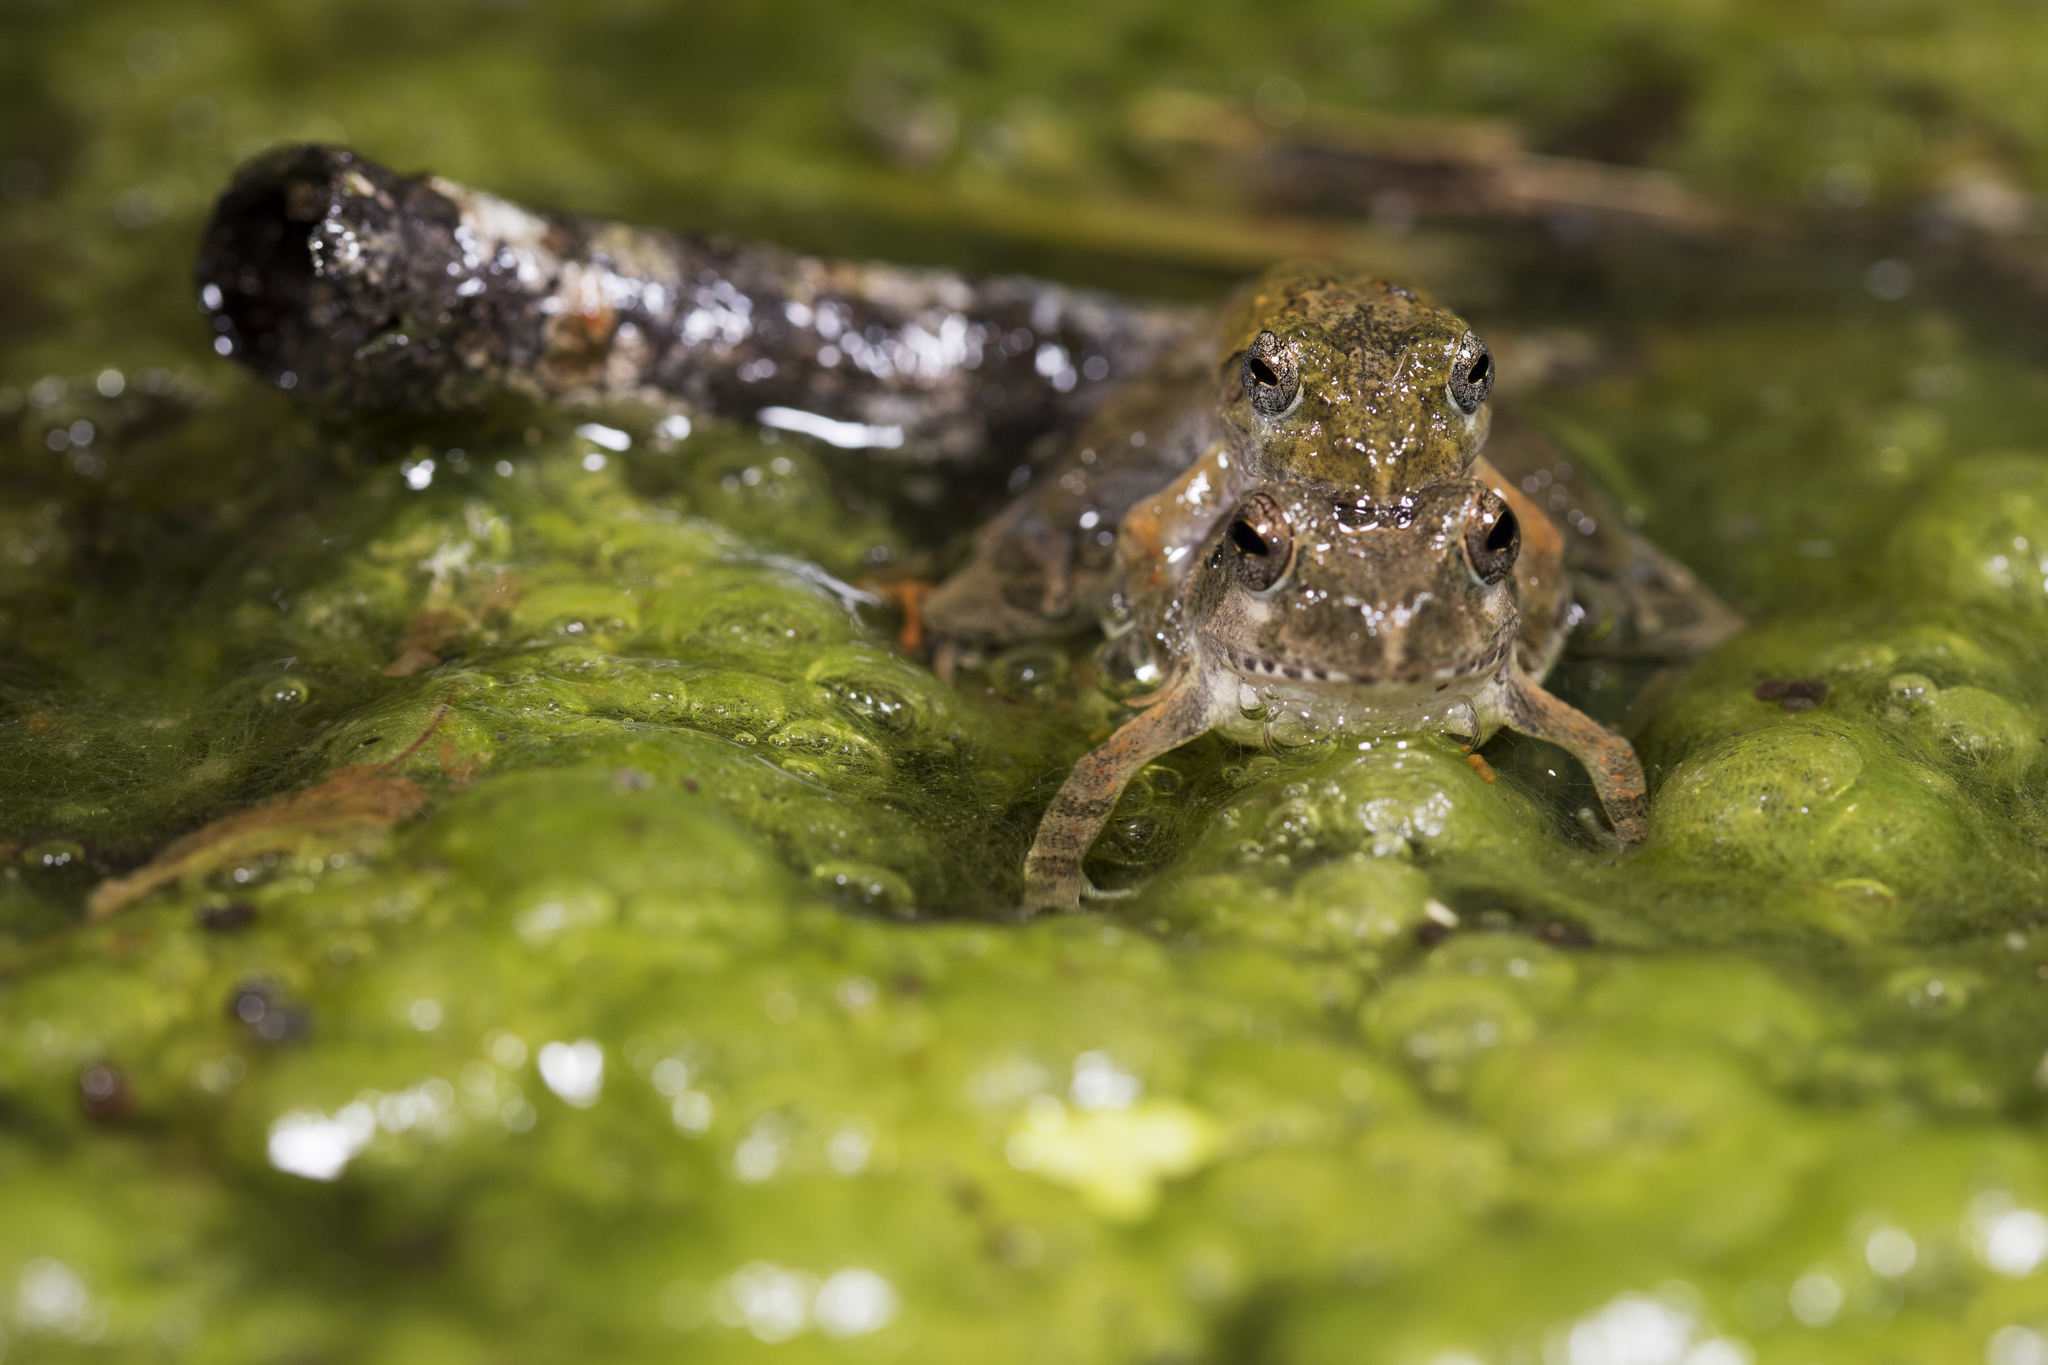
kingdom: Animalia
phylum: Chordata
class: Amphibia
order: Anura
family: Rhacophoridae
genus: Buergeria
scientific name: Buergeria choui
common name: Yaeyama kajika frog
